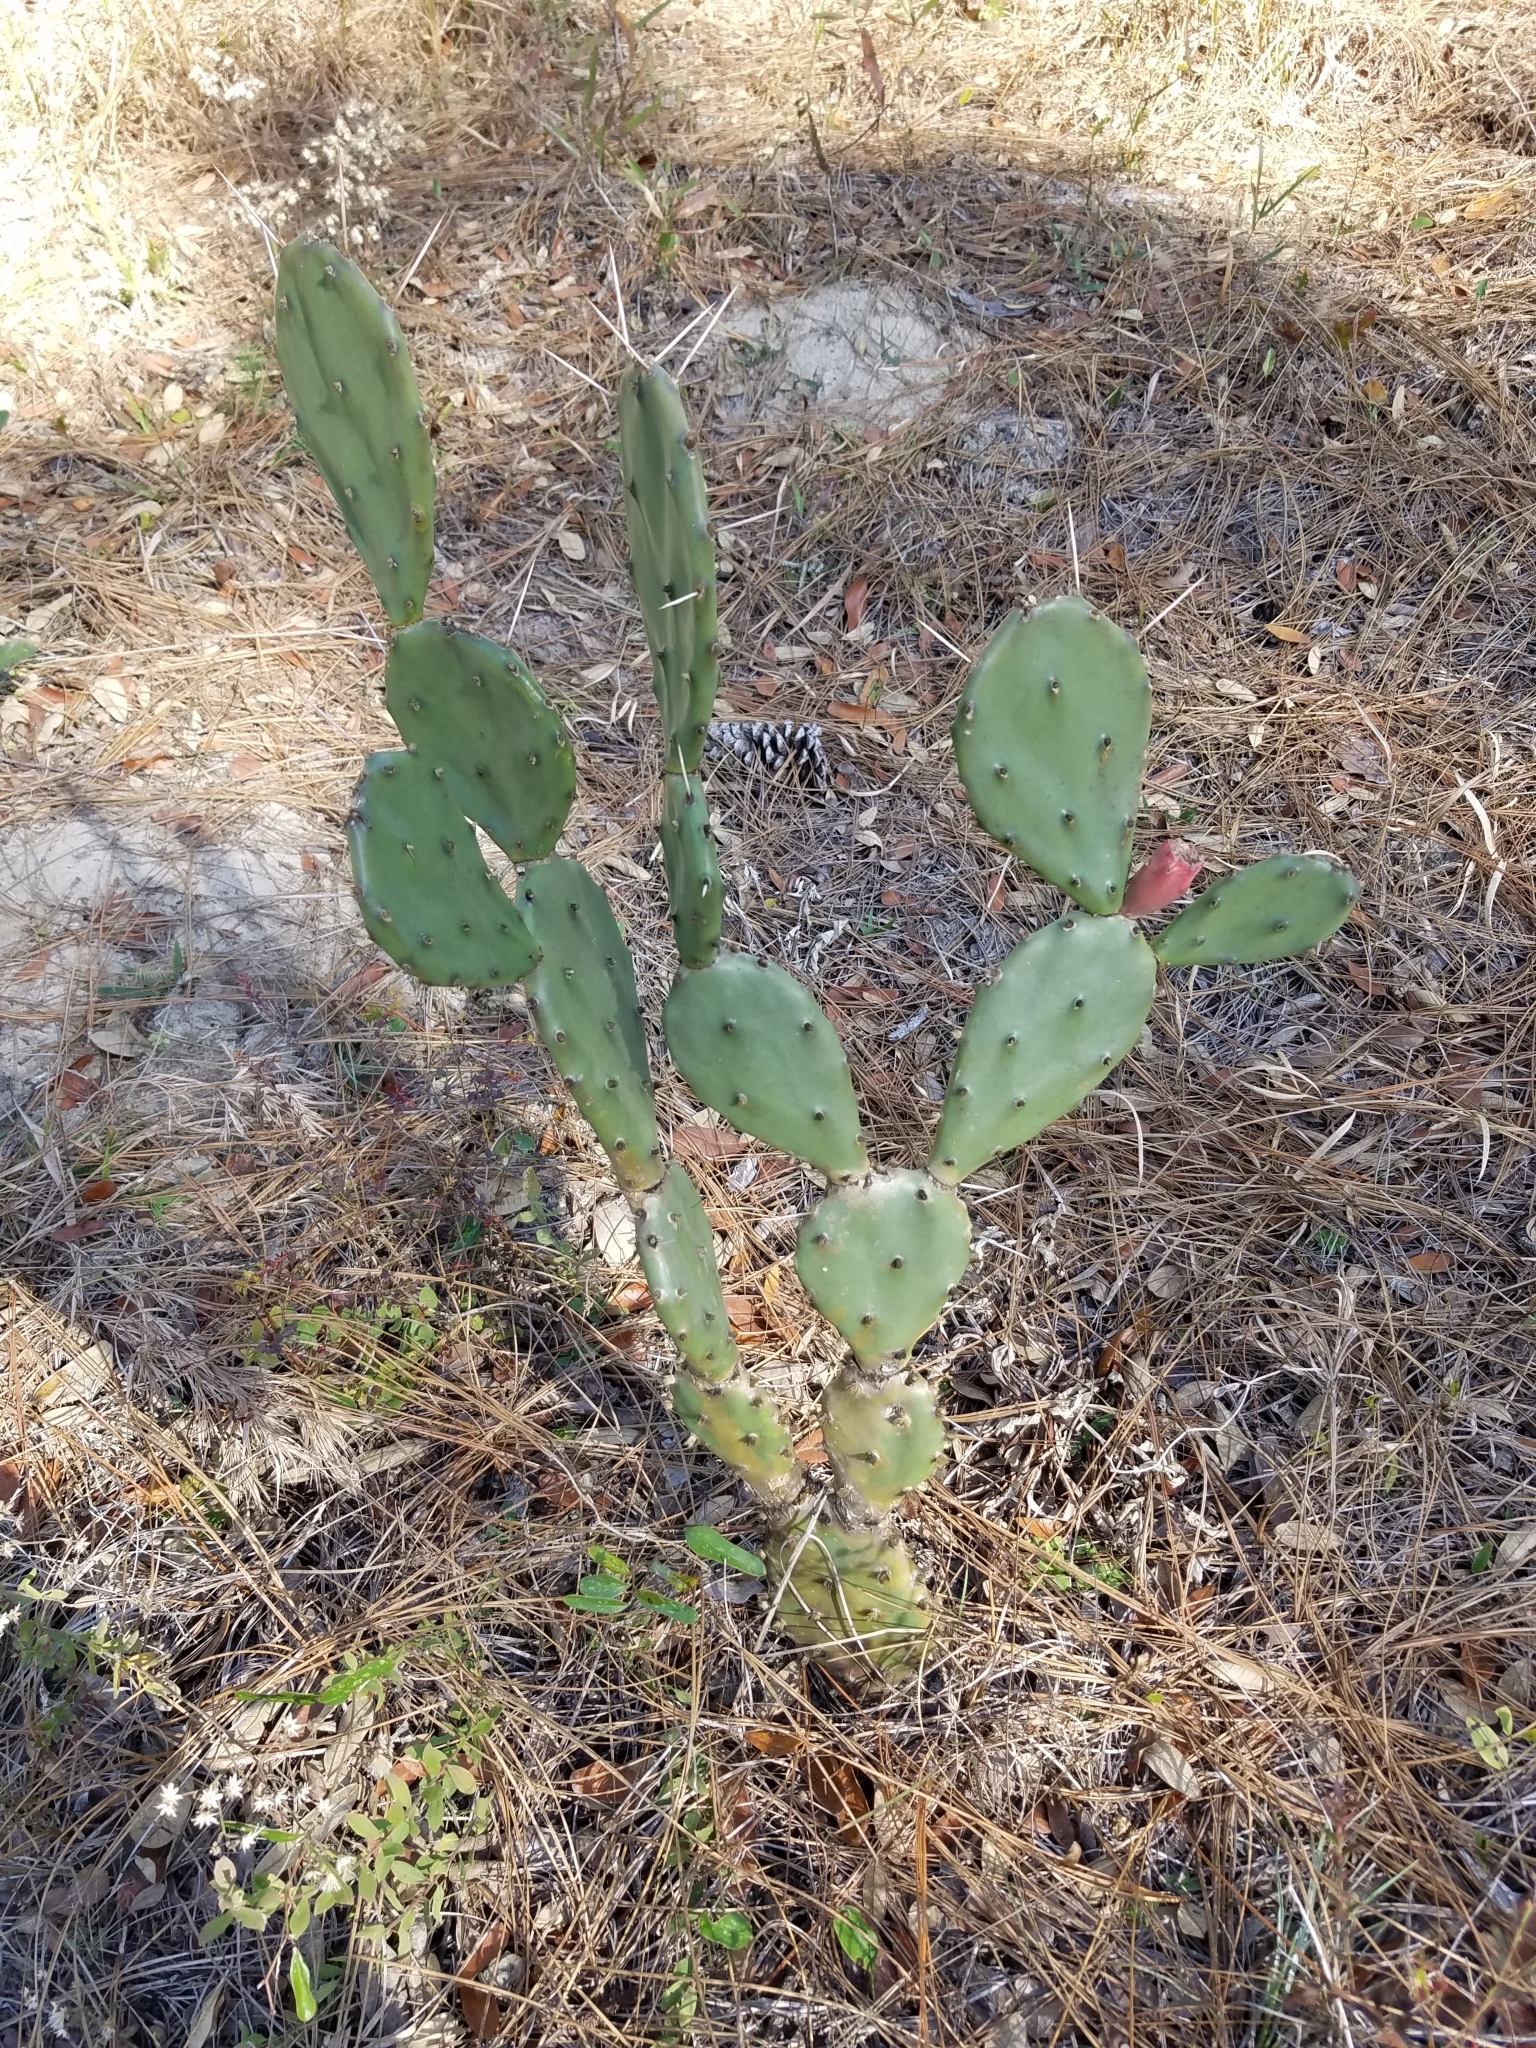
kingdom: Plantae
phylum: Tracheophyta
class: Magnoliopsida
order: Caryophyllales
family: Cactaceae
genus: Opuntia
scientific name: Opuntia austrina
